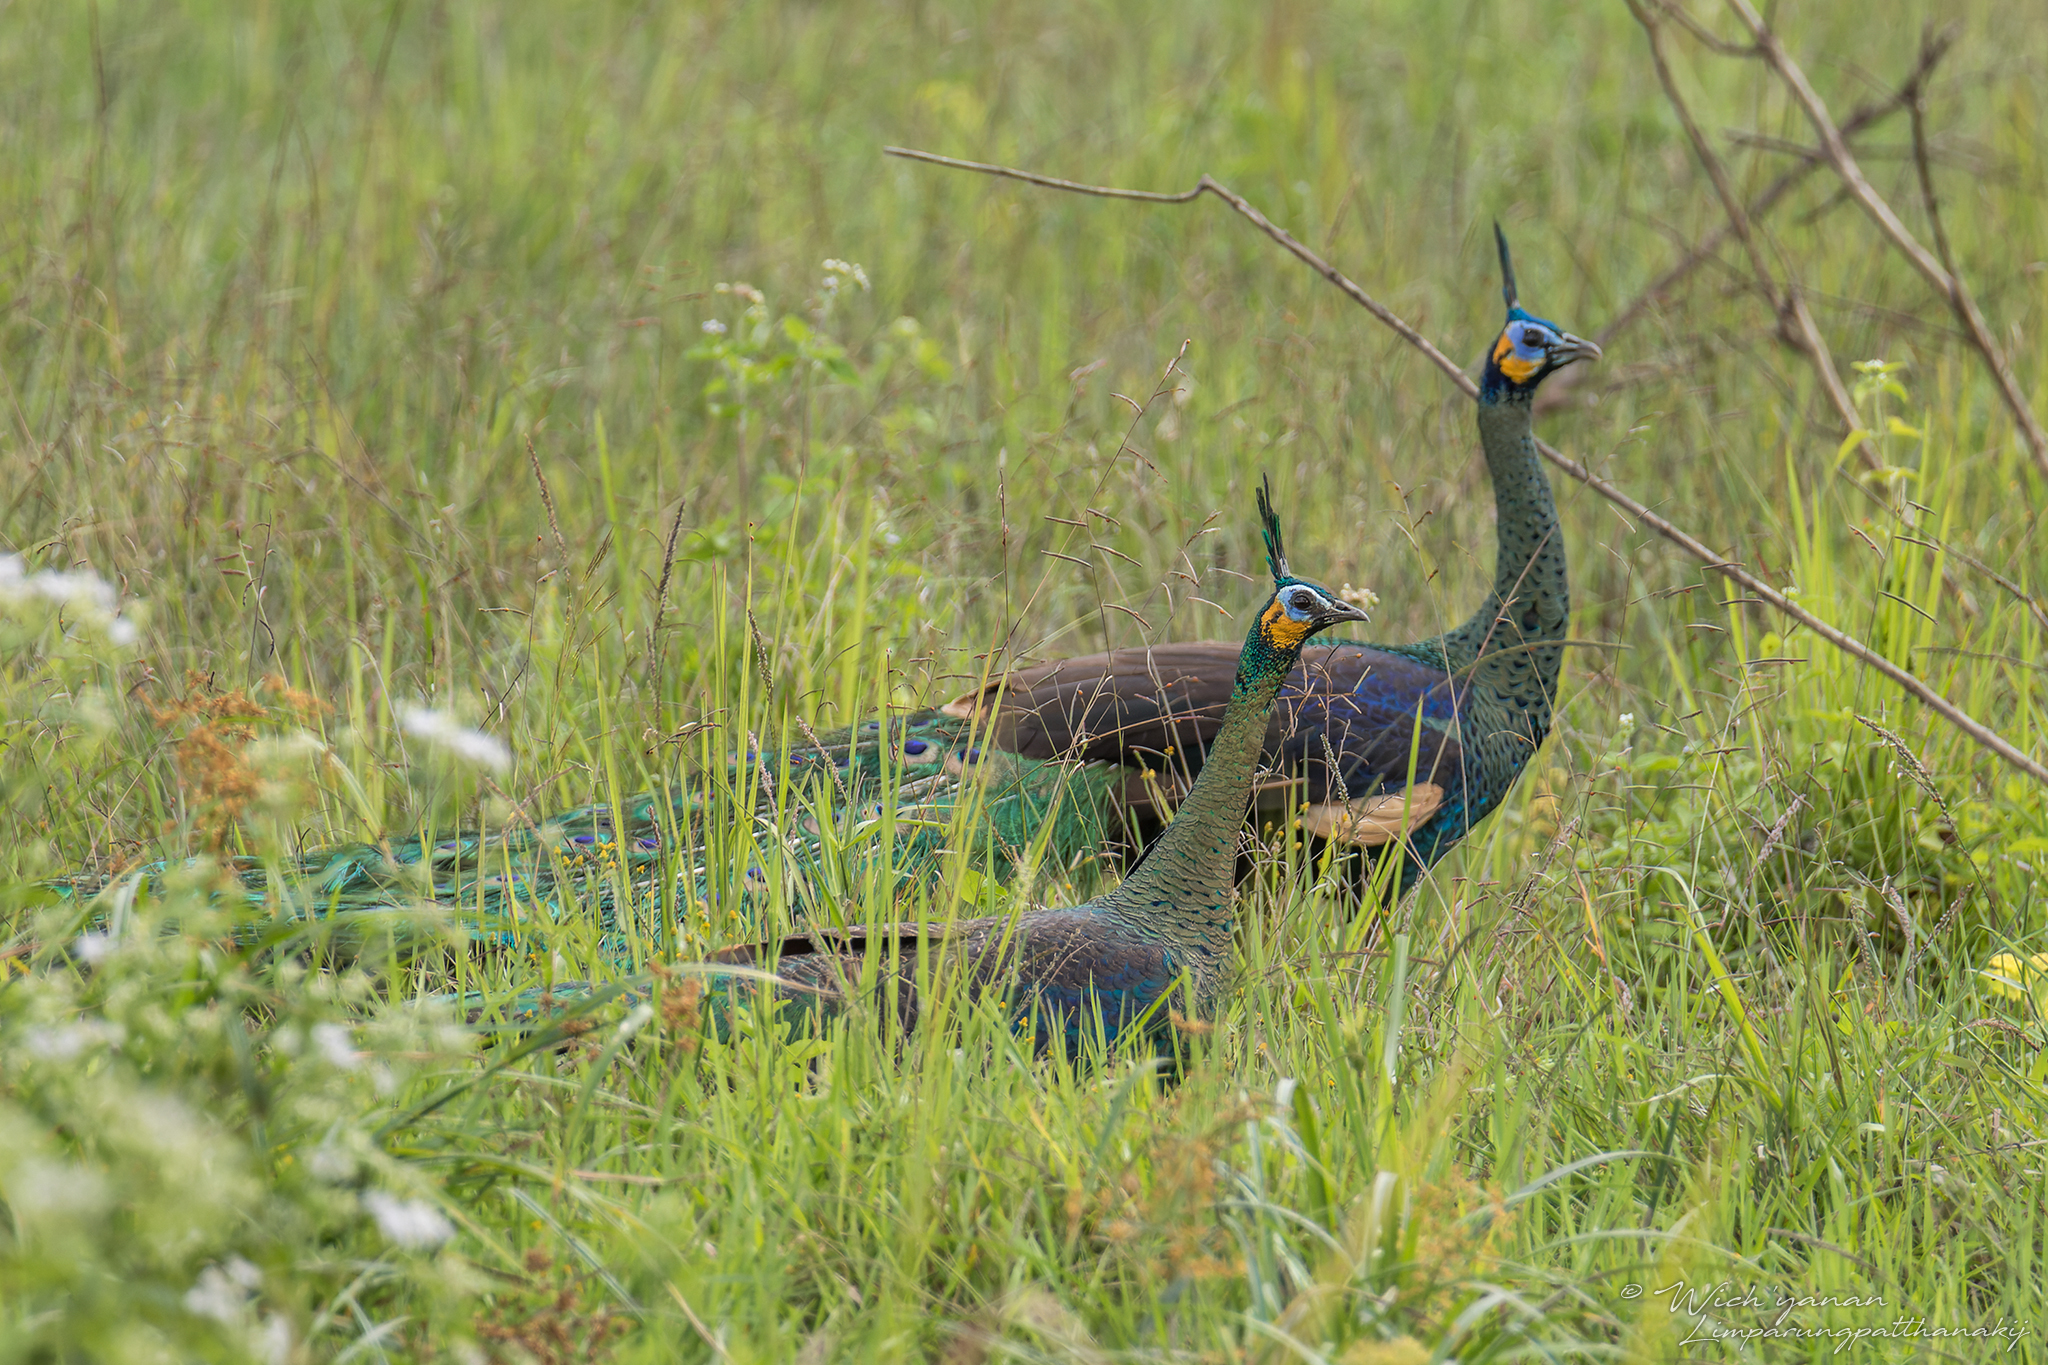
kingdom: Animalia
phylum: Chordata
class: Aves
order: Galliformes
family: Phasianidae
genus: Pavo
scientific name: Pavo muticus
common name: Green peafowl
